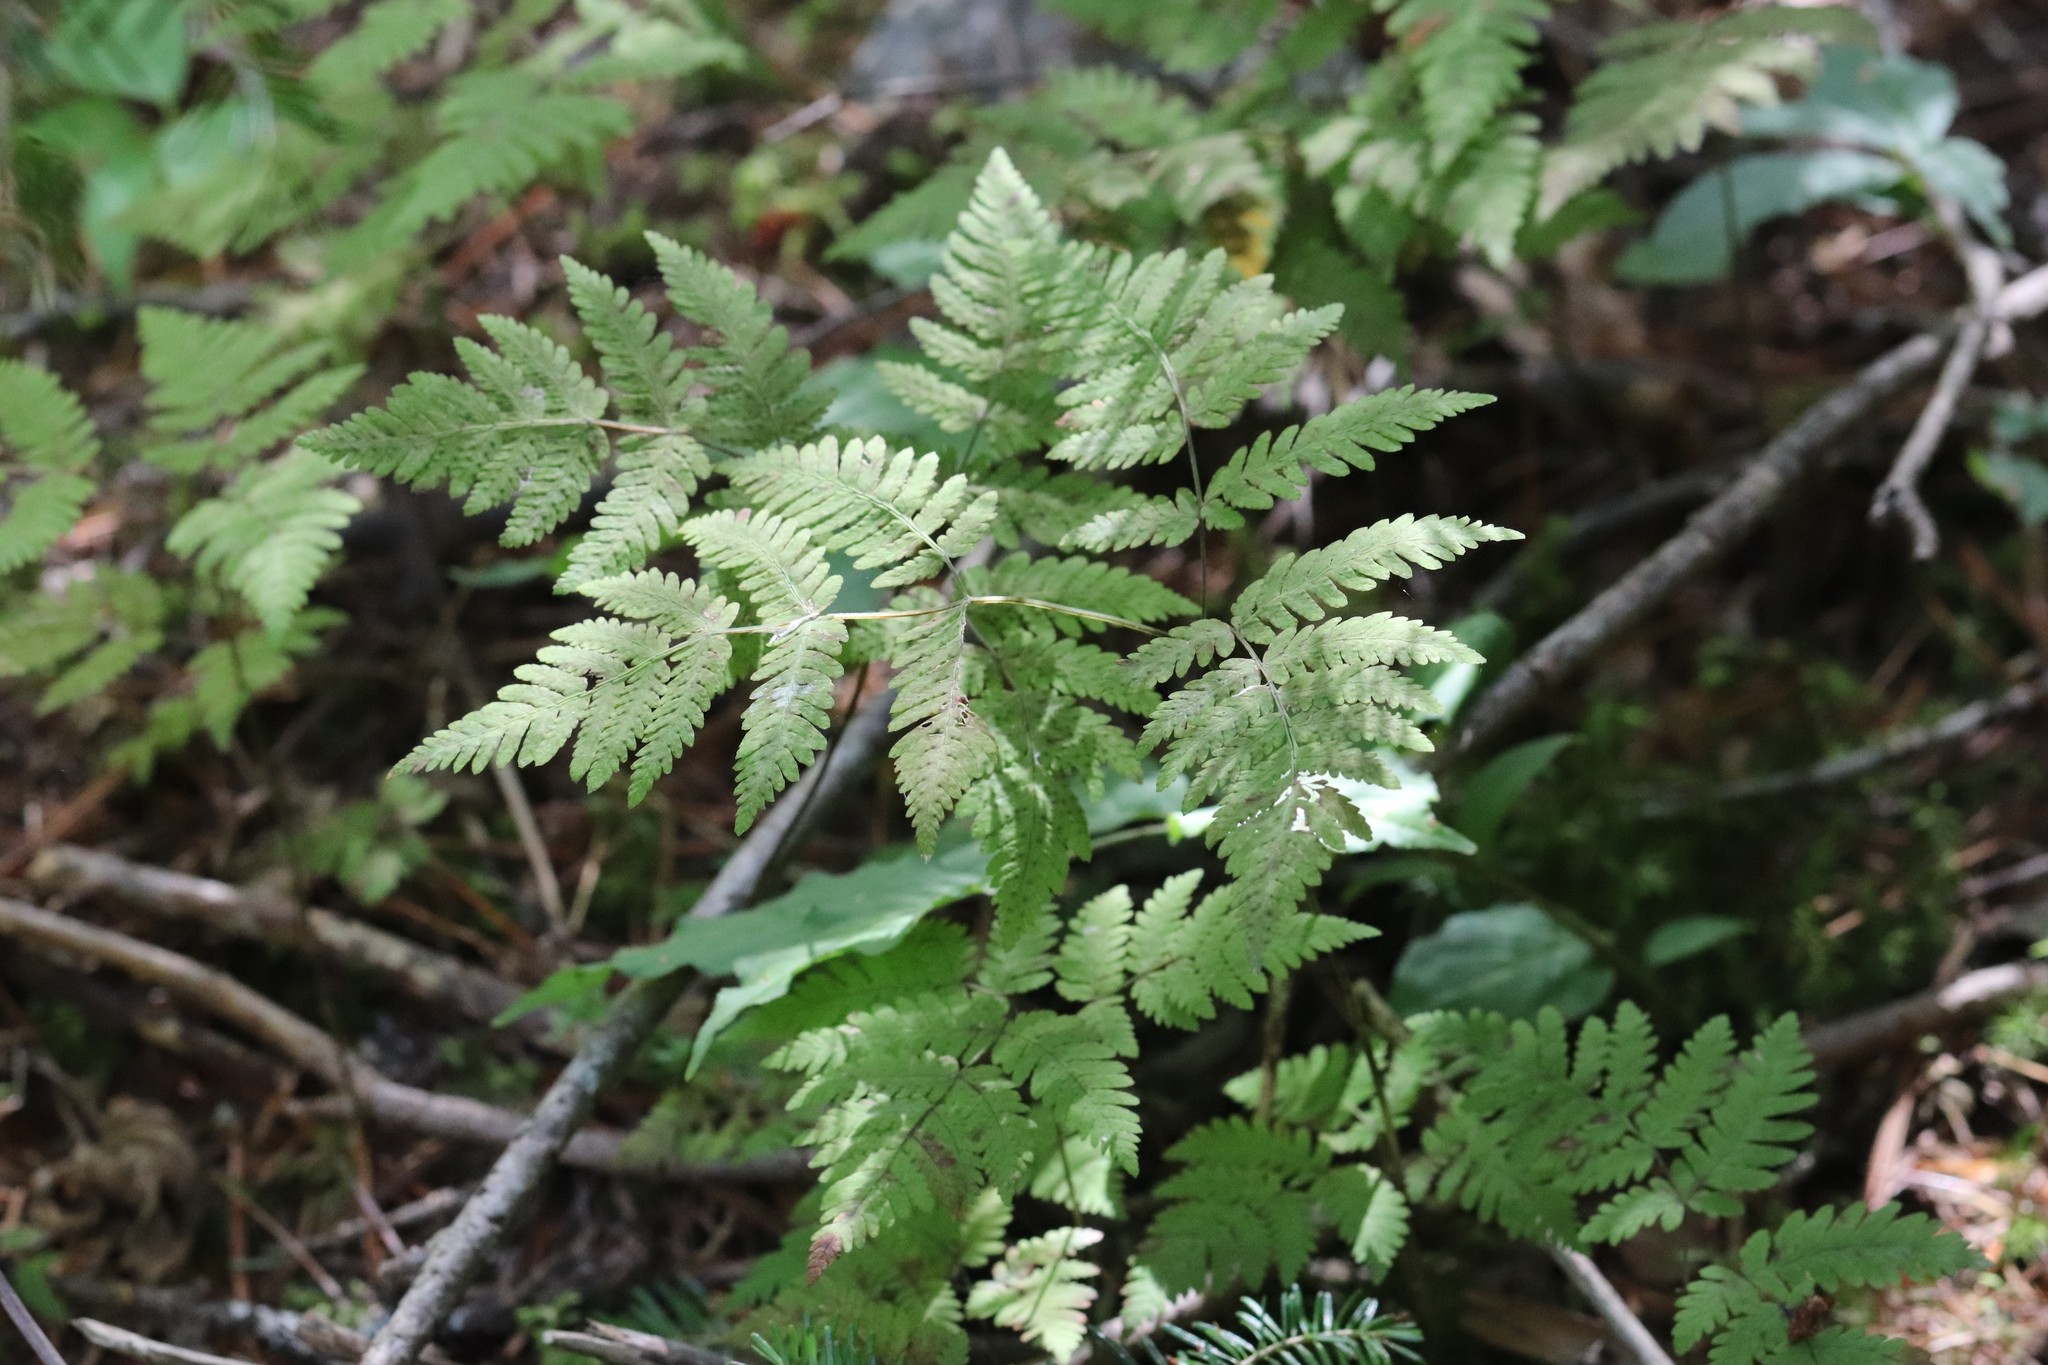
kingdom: Plantae
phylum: Tracheophyta
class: Polypodiopsida
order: Polypodiales
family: Cystopteridaceae
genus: Gymnocarpium
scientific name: Gymnocarpium dryopteris
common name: Oak fern
